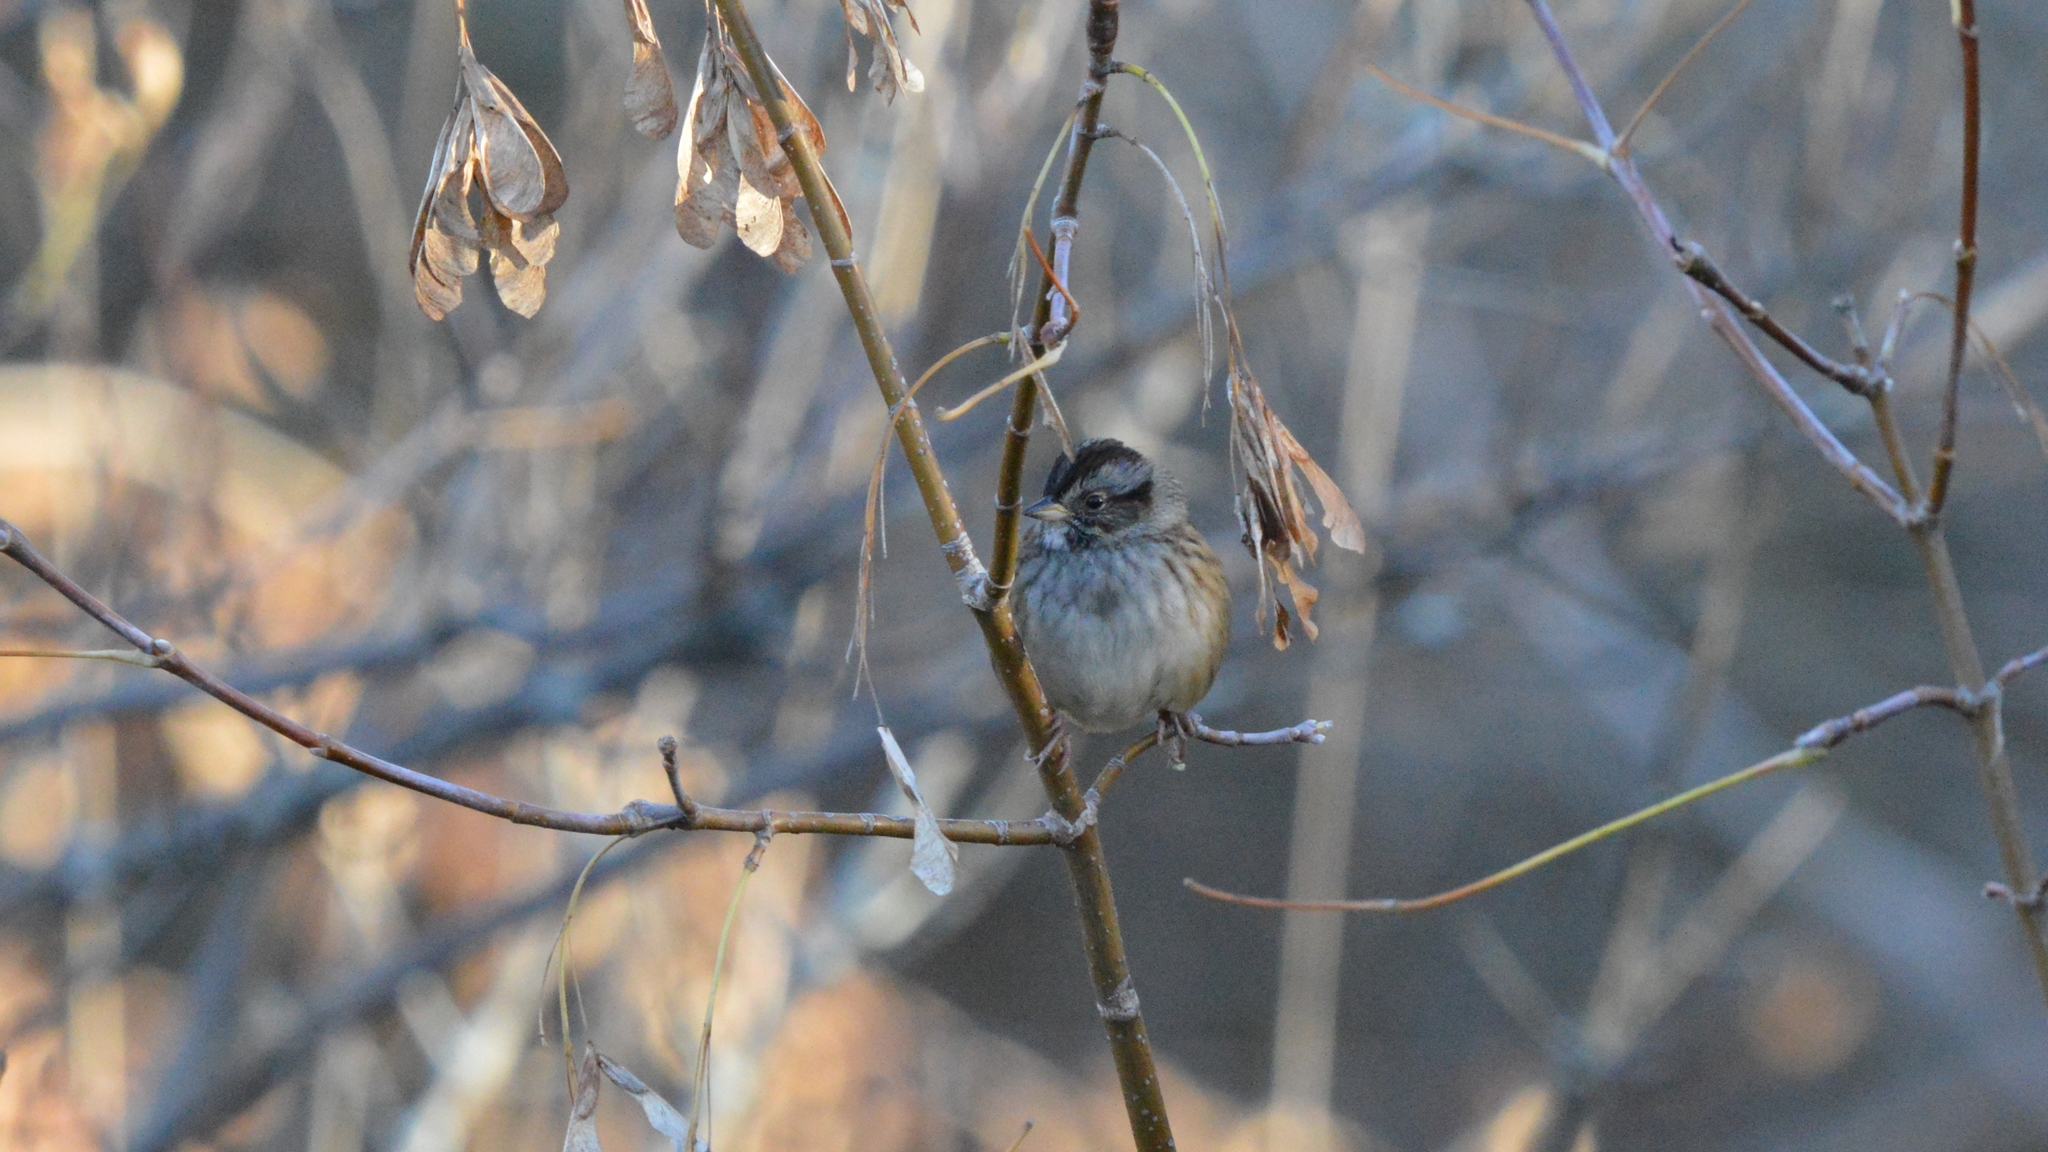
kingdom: Animalia
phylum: Chordata
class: Aves
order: Passeriformes
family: Passerellidae
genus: Melospiza
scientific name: Melospiza georgiana
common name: Swamp sparrow
